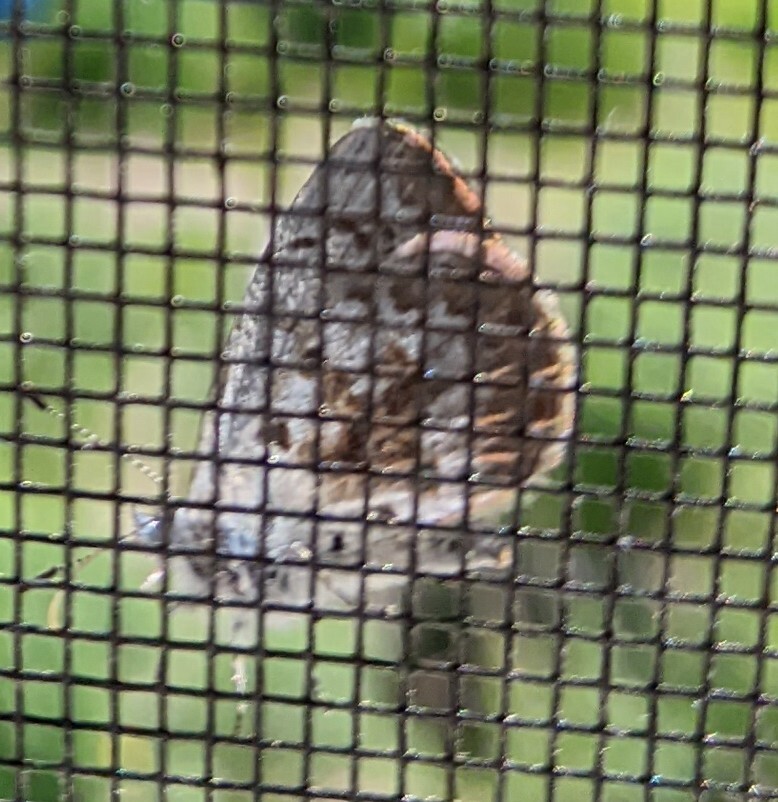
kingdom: Animalia
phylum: Arthropoda
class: Insecta
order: Lepidoptera
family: Lycaenidae
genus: Celastrina
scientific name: Celastrina lucia
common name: Lucia azure
